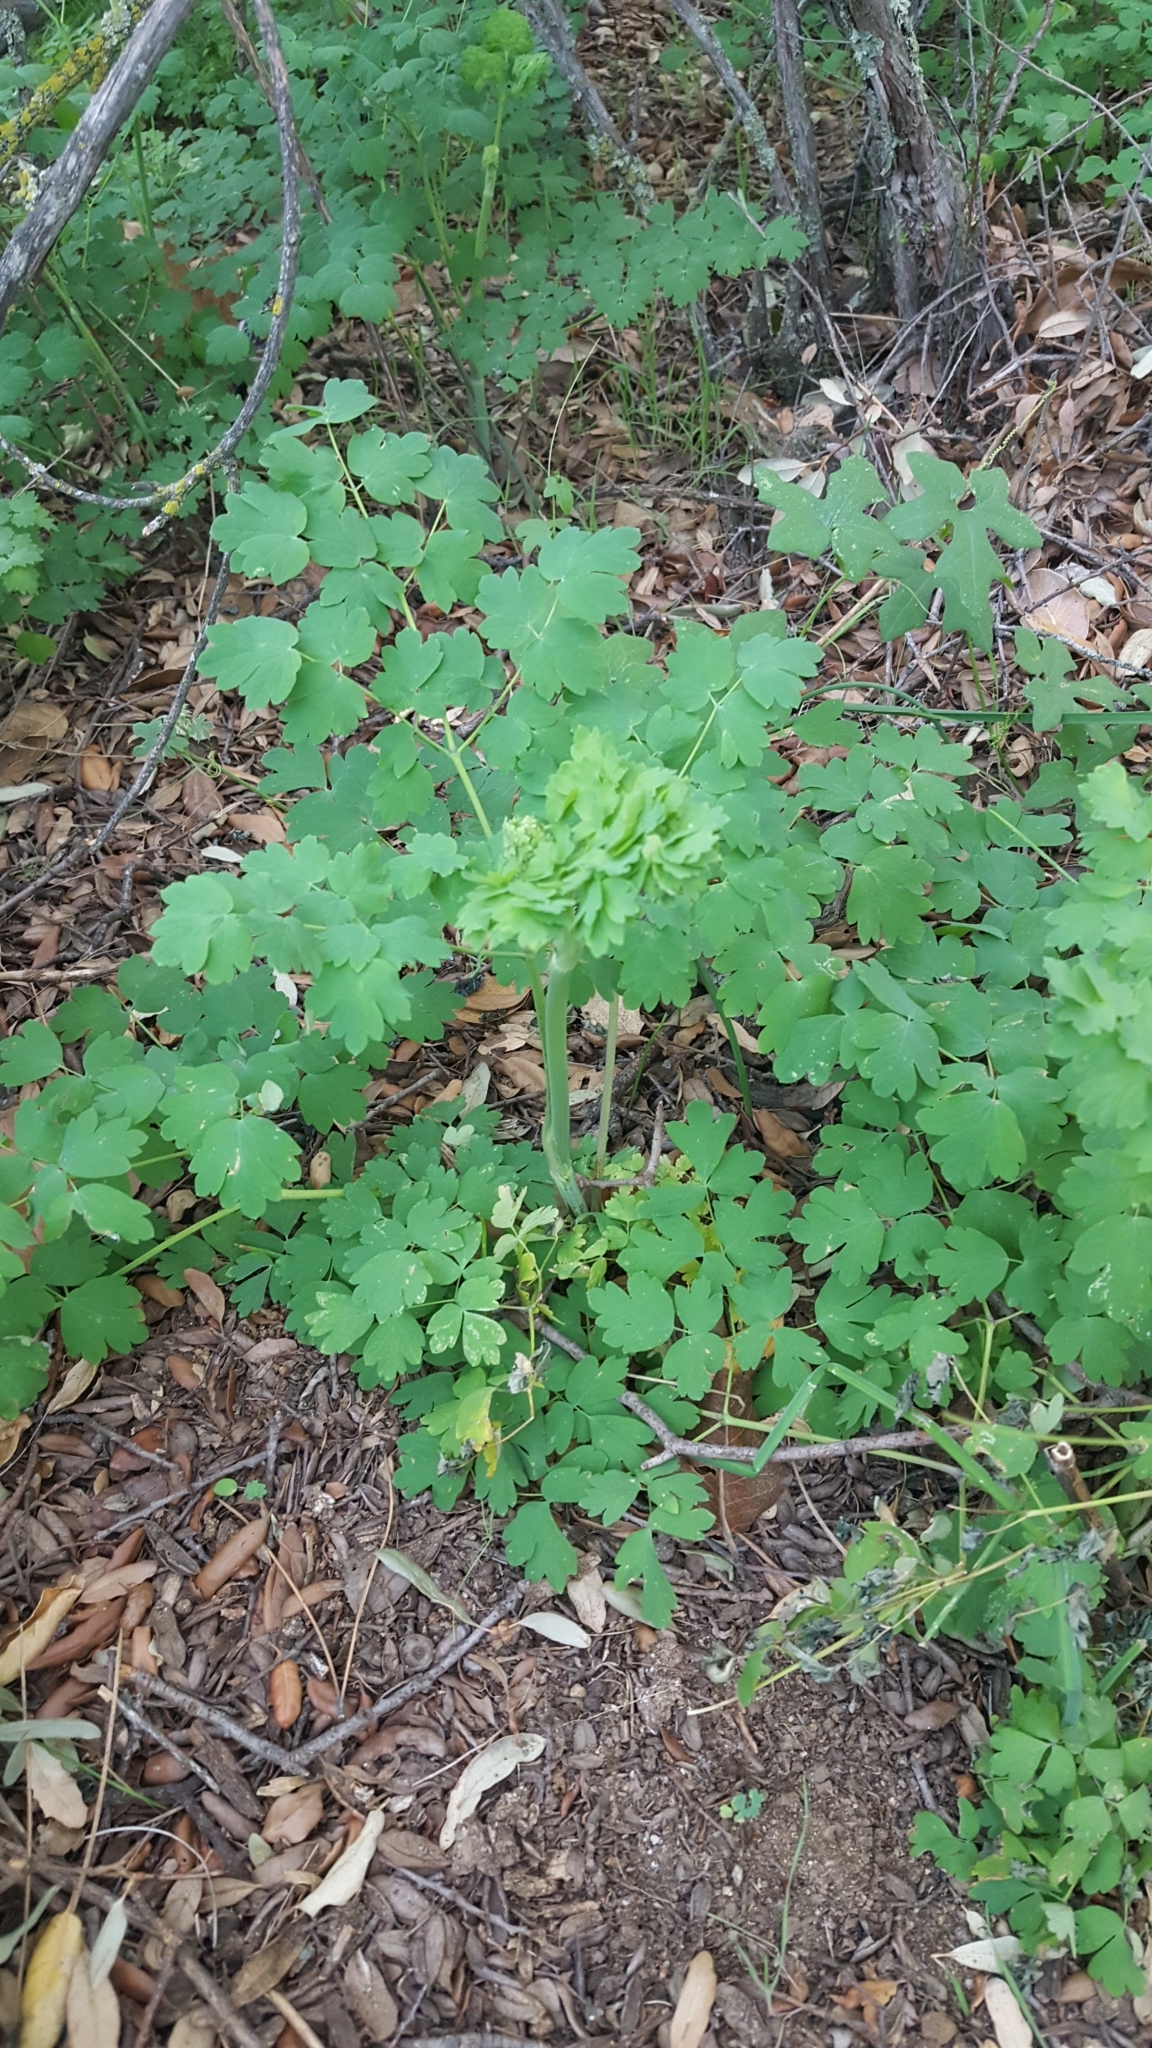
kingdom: Plantae
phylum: Tracheophyta
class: Magnoliopsida
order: Ranunculales
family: Ranunculaceae
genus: Thalictrum
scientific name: Thalictrum fendleri
